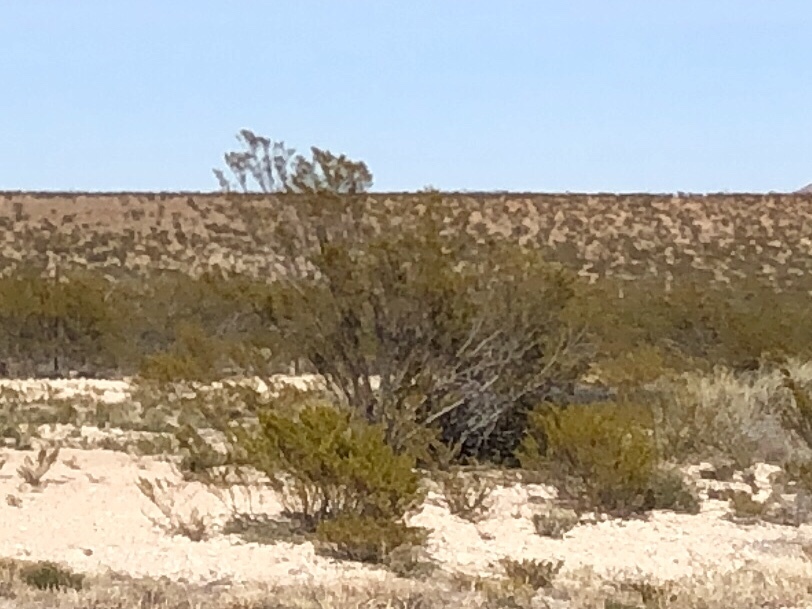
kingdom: Plantae
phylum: Tracheophyta
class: Magnoliopsida
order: Zygophyllales
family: Zygophyllaceae
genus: Larrea
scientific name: Larrea tridentata
